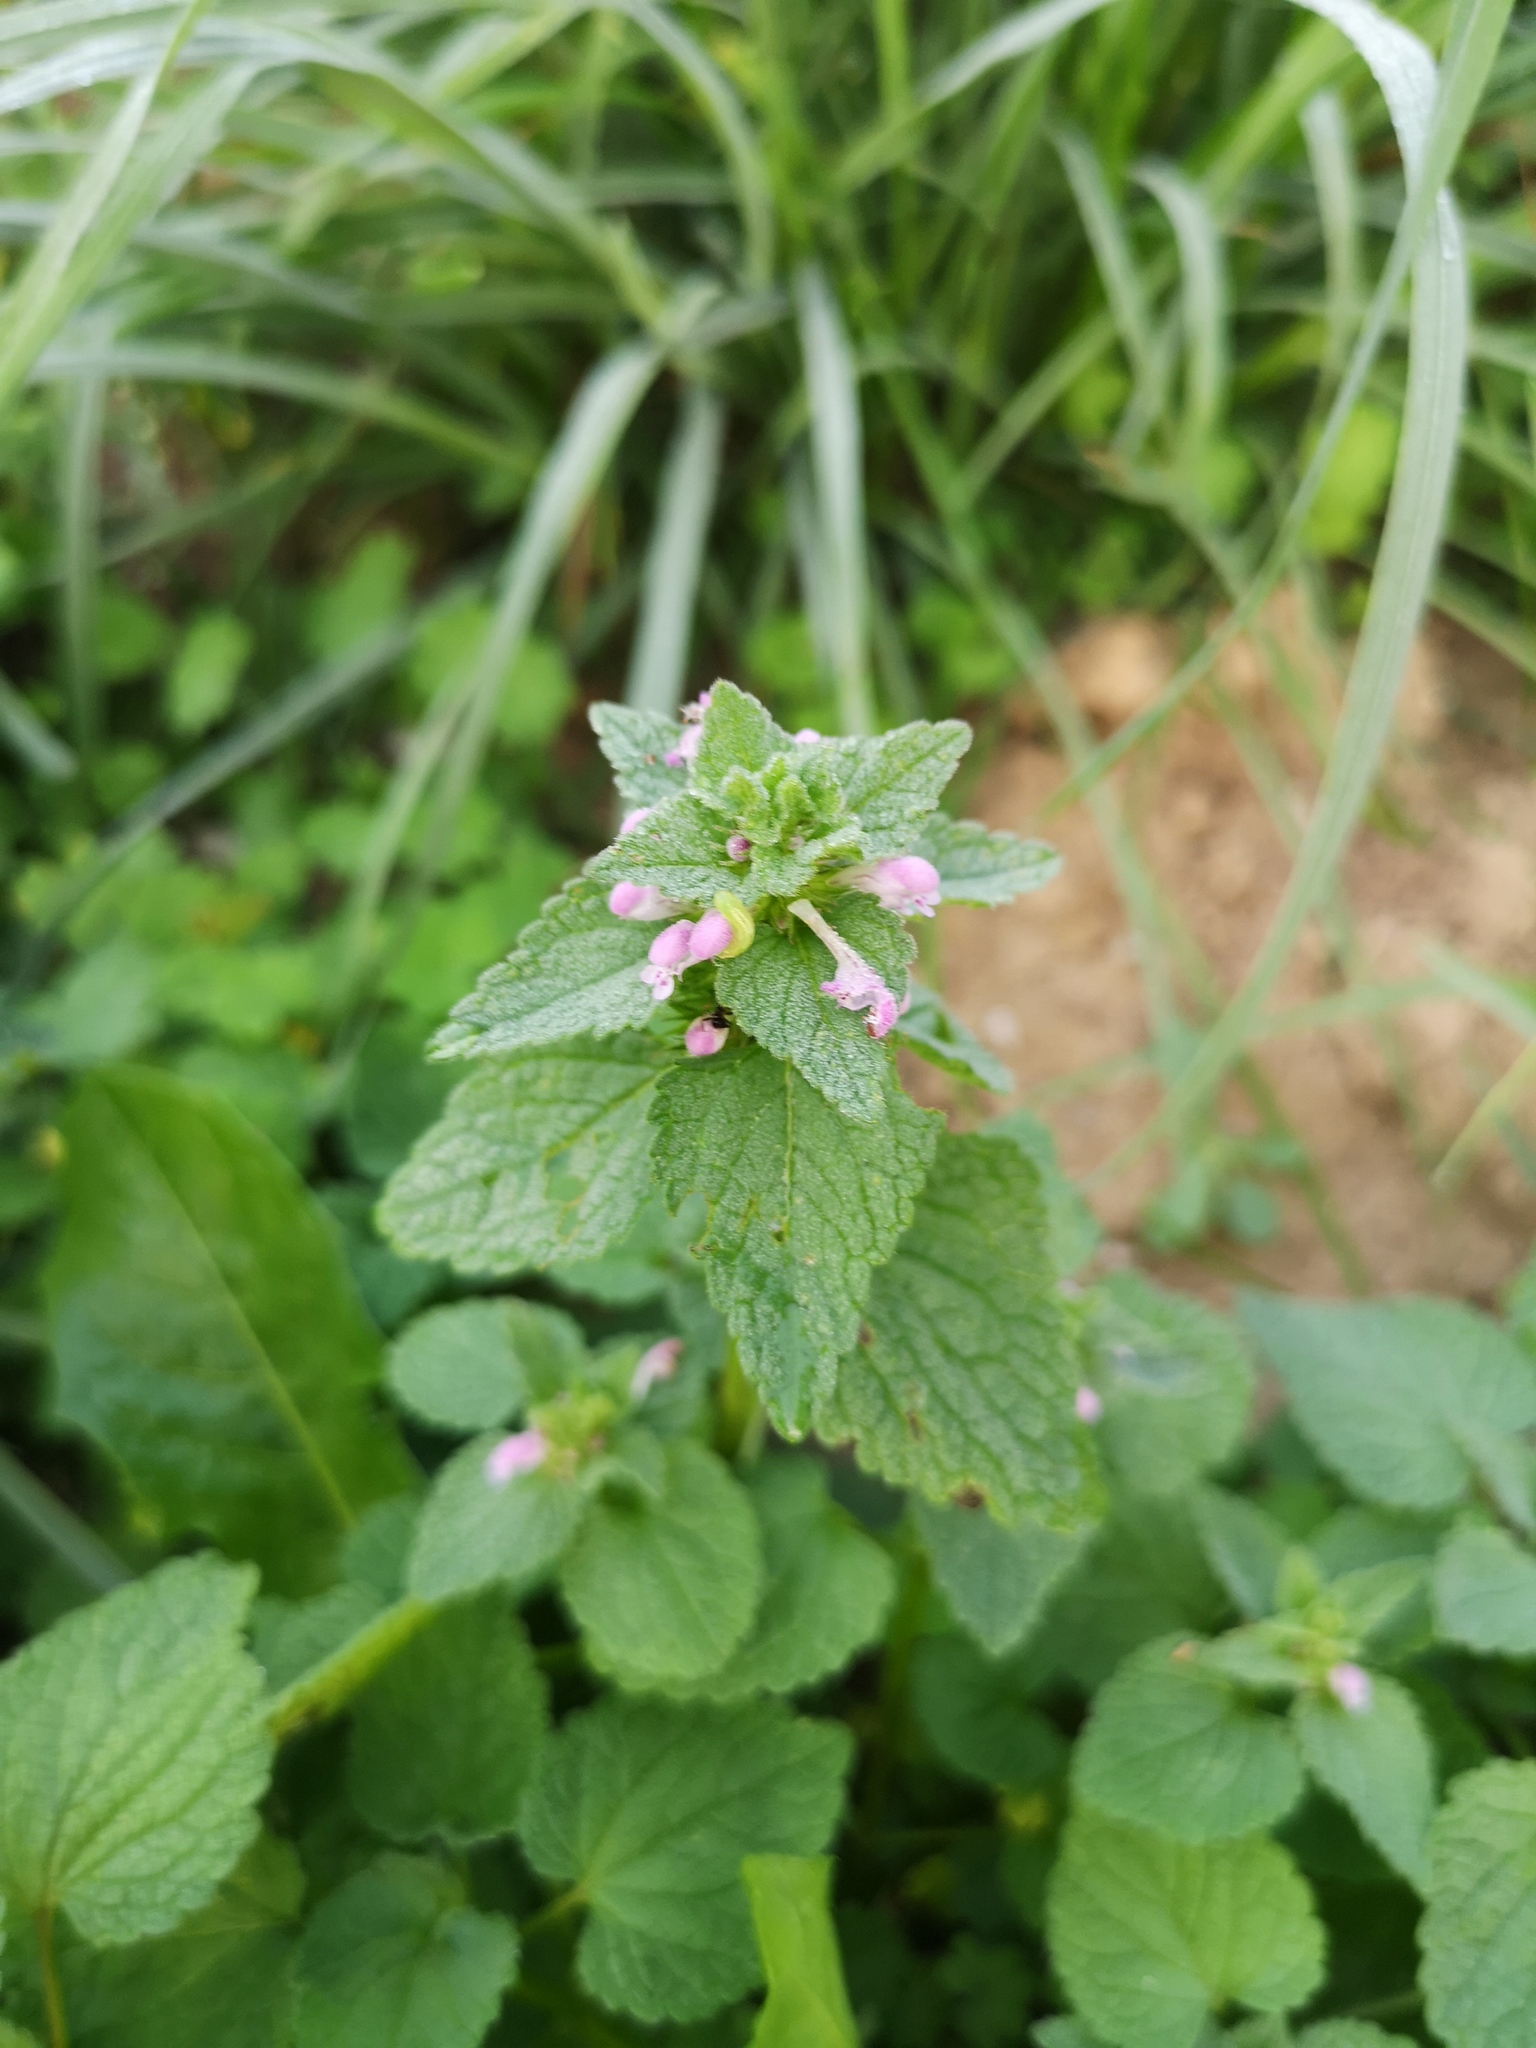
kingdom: Plantae
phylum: Tracheophyta
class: Magnoliopsida
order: Lamiales
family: Lamiaceae
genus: Lamium
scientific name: Lamium purpureum
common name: Red dead-nettle
